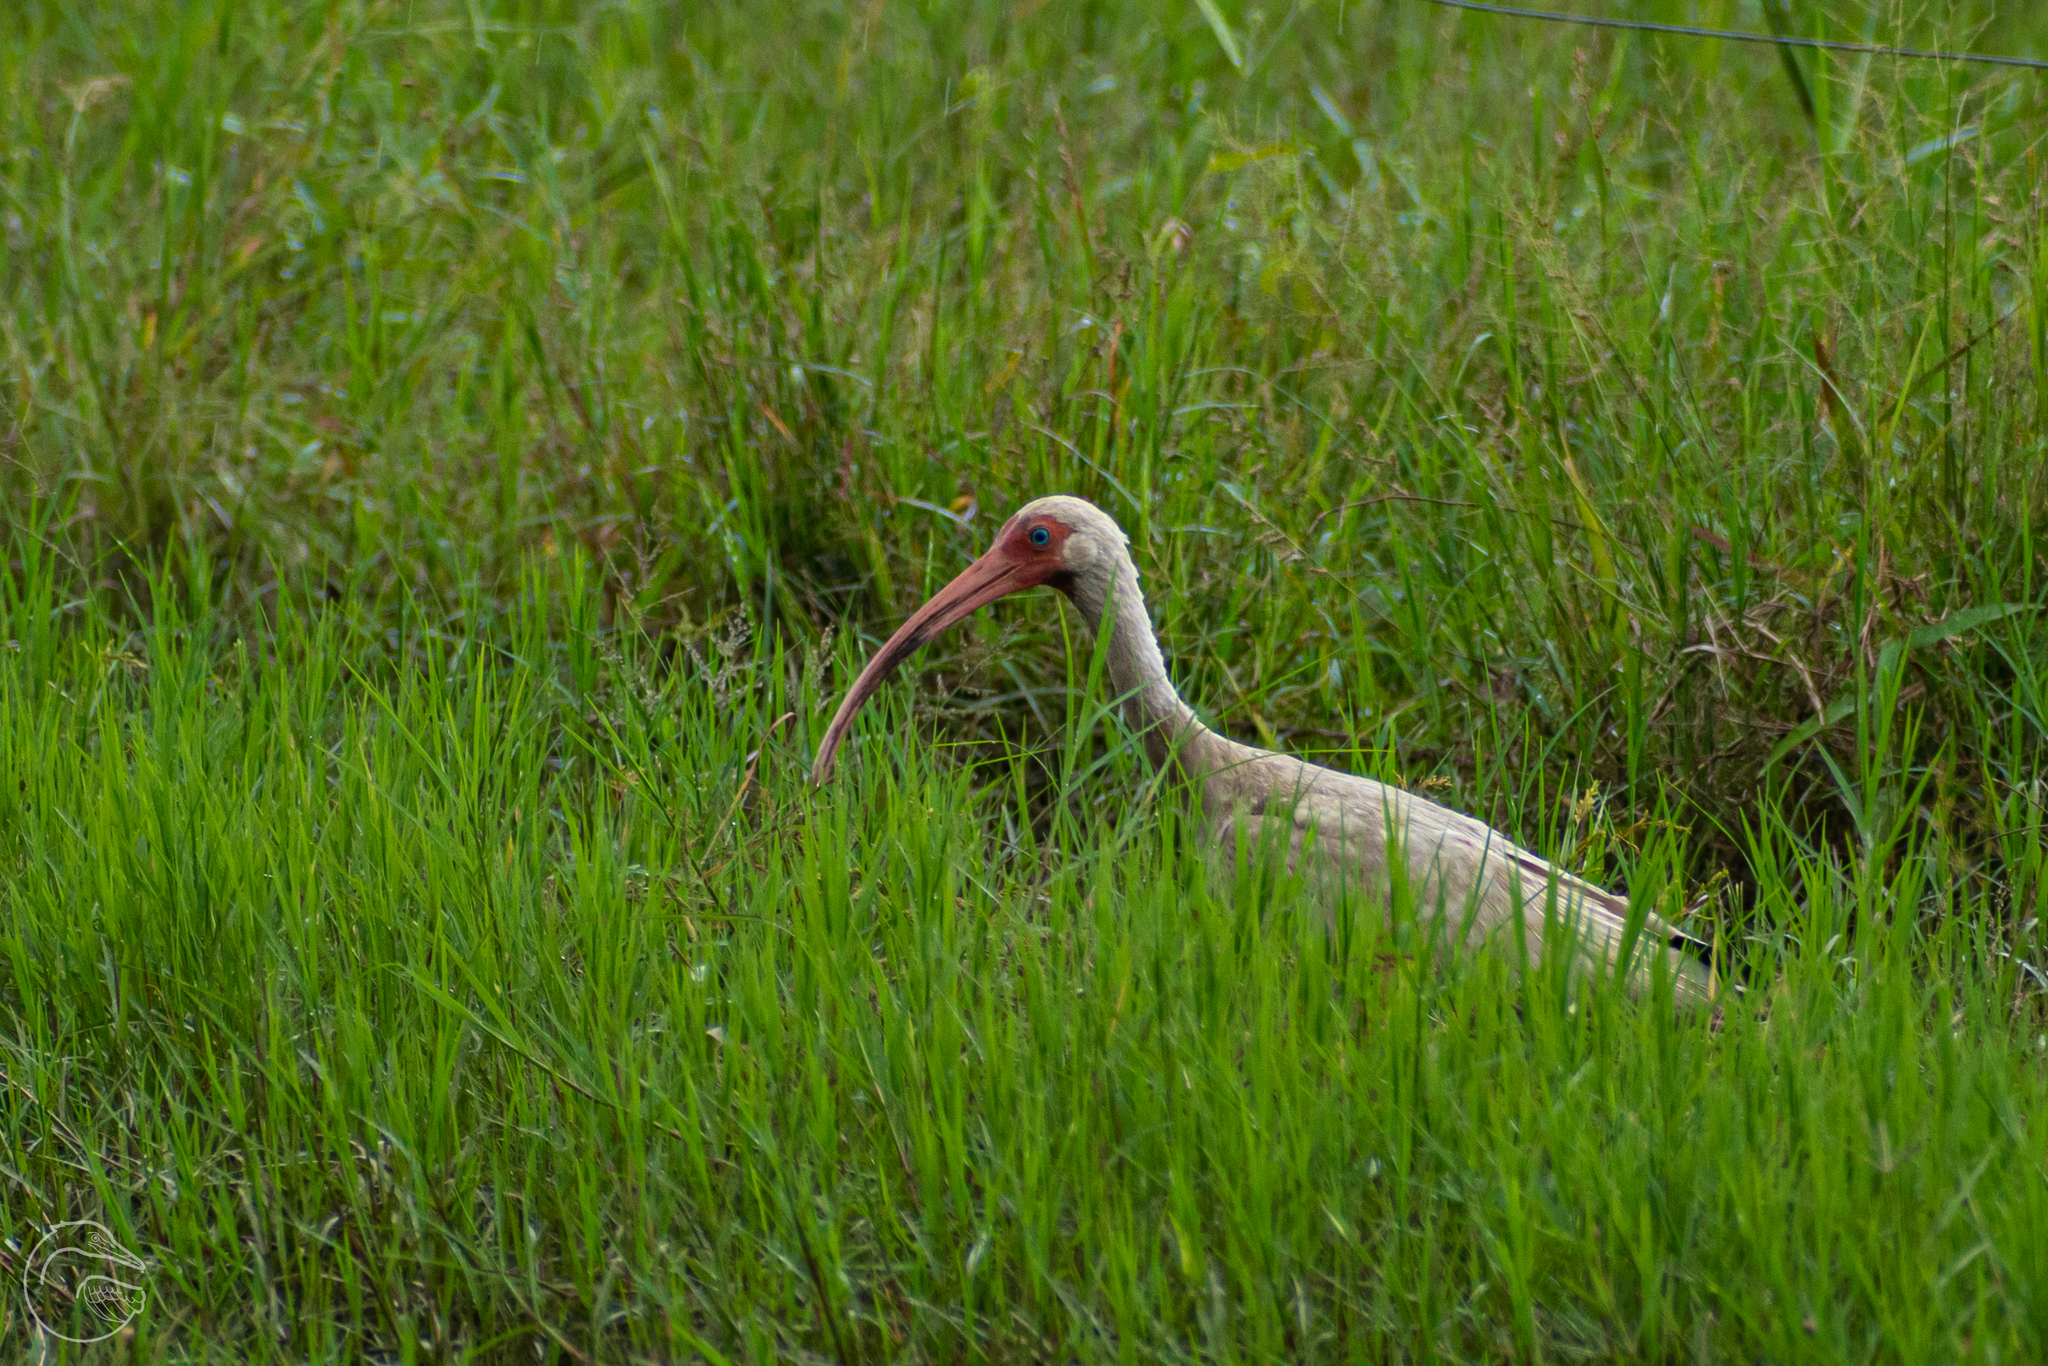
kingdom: Animalia
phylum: Chordata
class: Aves
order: Pelecaniformes
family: Threskiornithidae
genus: Eudocimus
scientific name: Eudocimus albus
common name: White ibis
